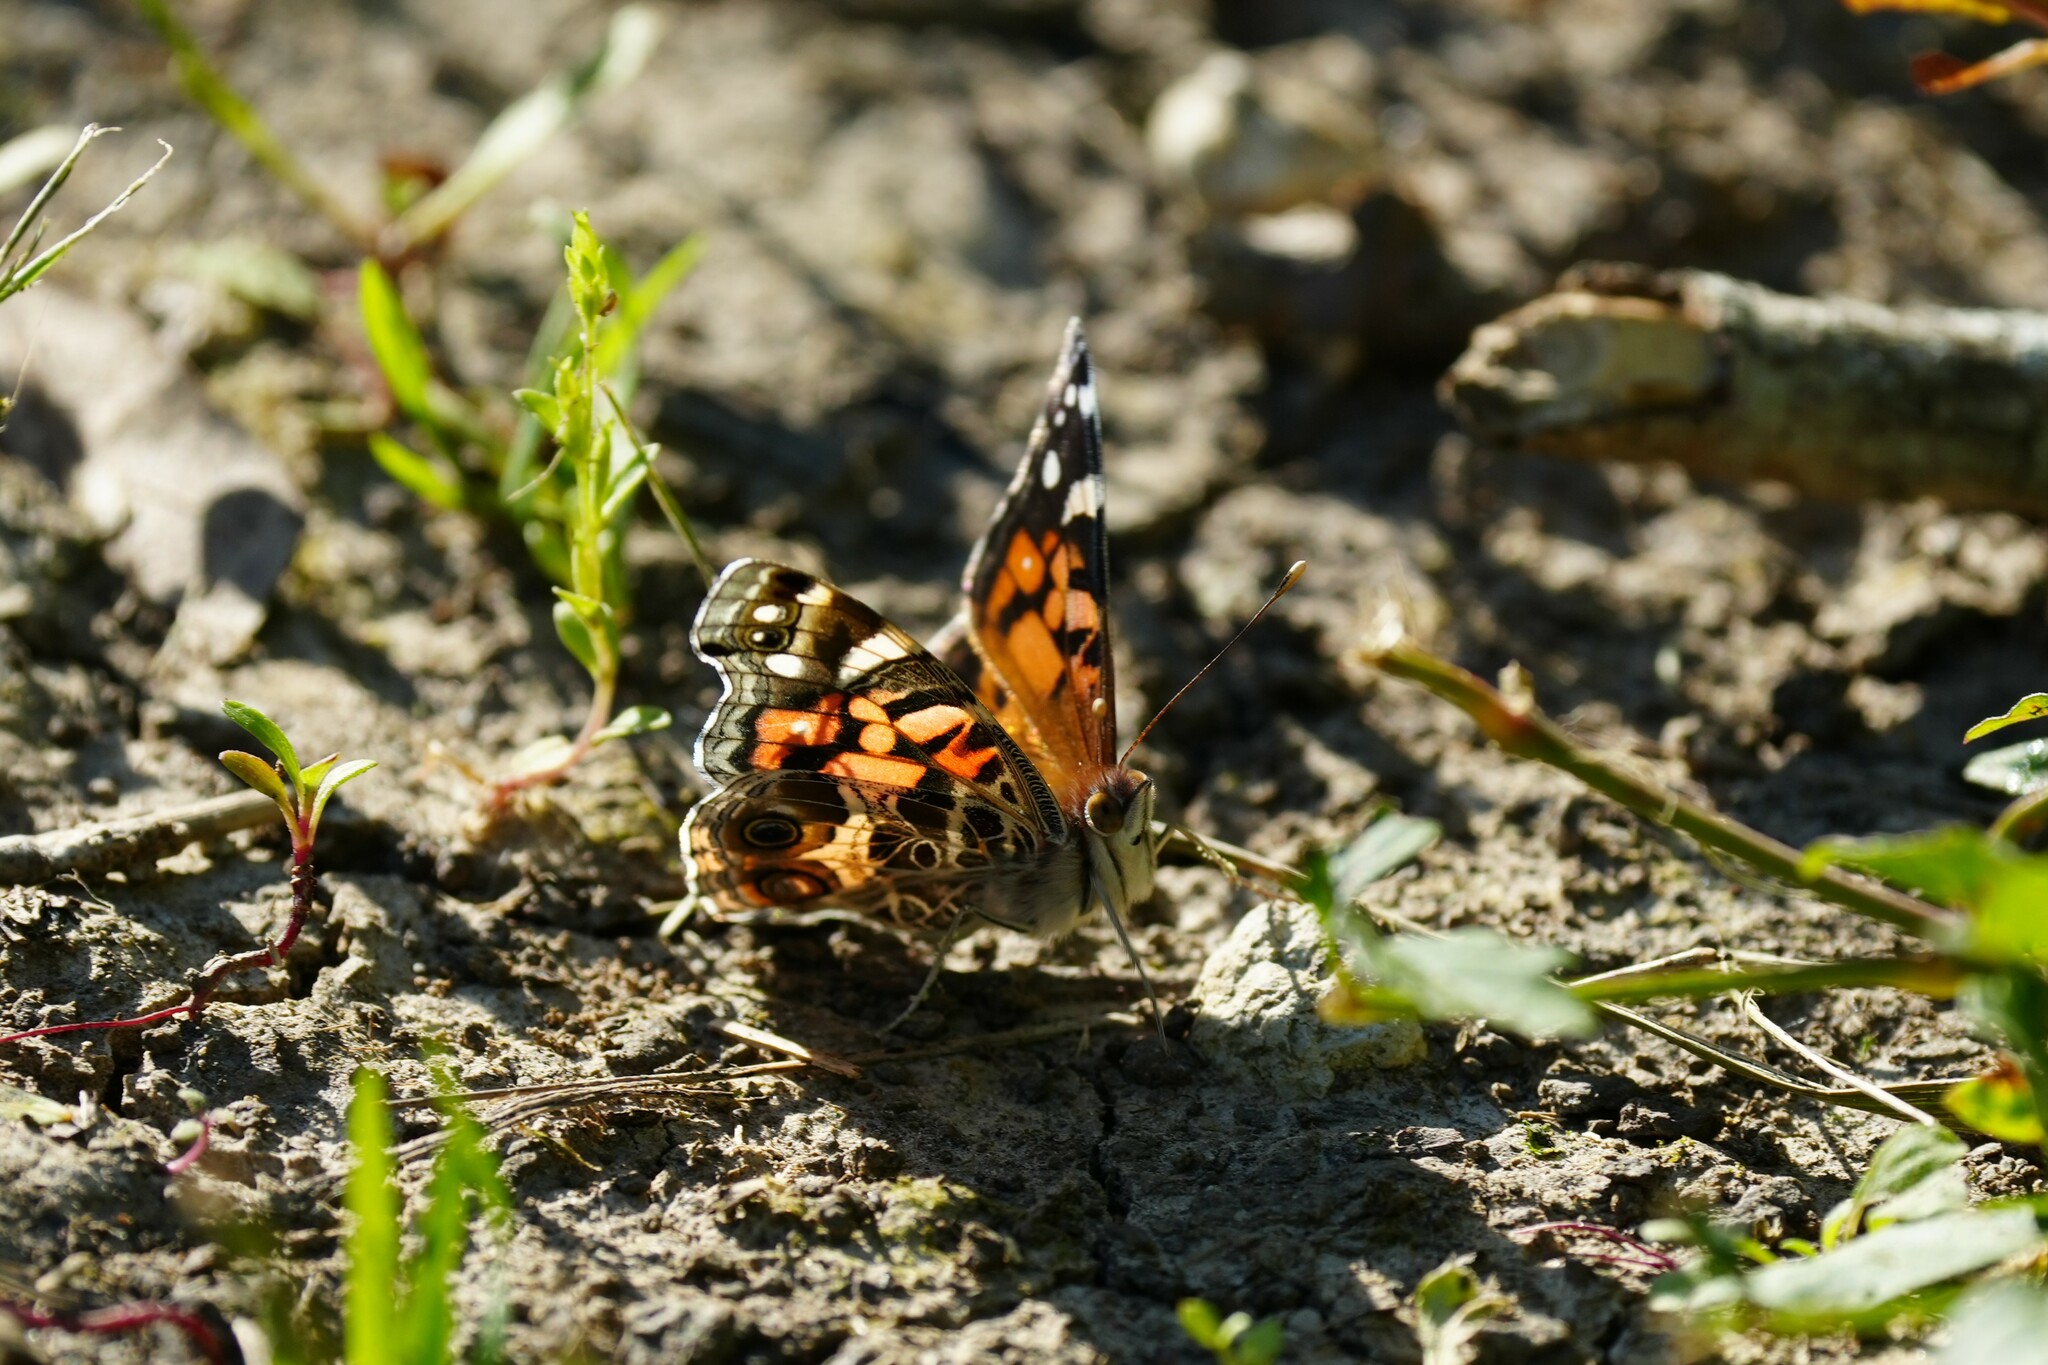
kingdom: Animalia
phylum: Arthropoda
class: Insecta
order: Lepidoptera
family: Nymphalidae
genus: Vanessa
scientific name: Vanessa virginiensis
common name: American lady
